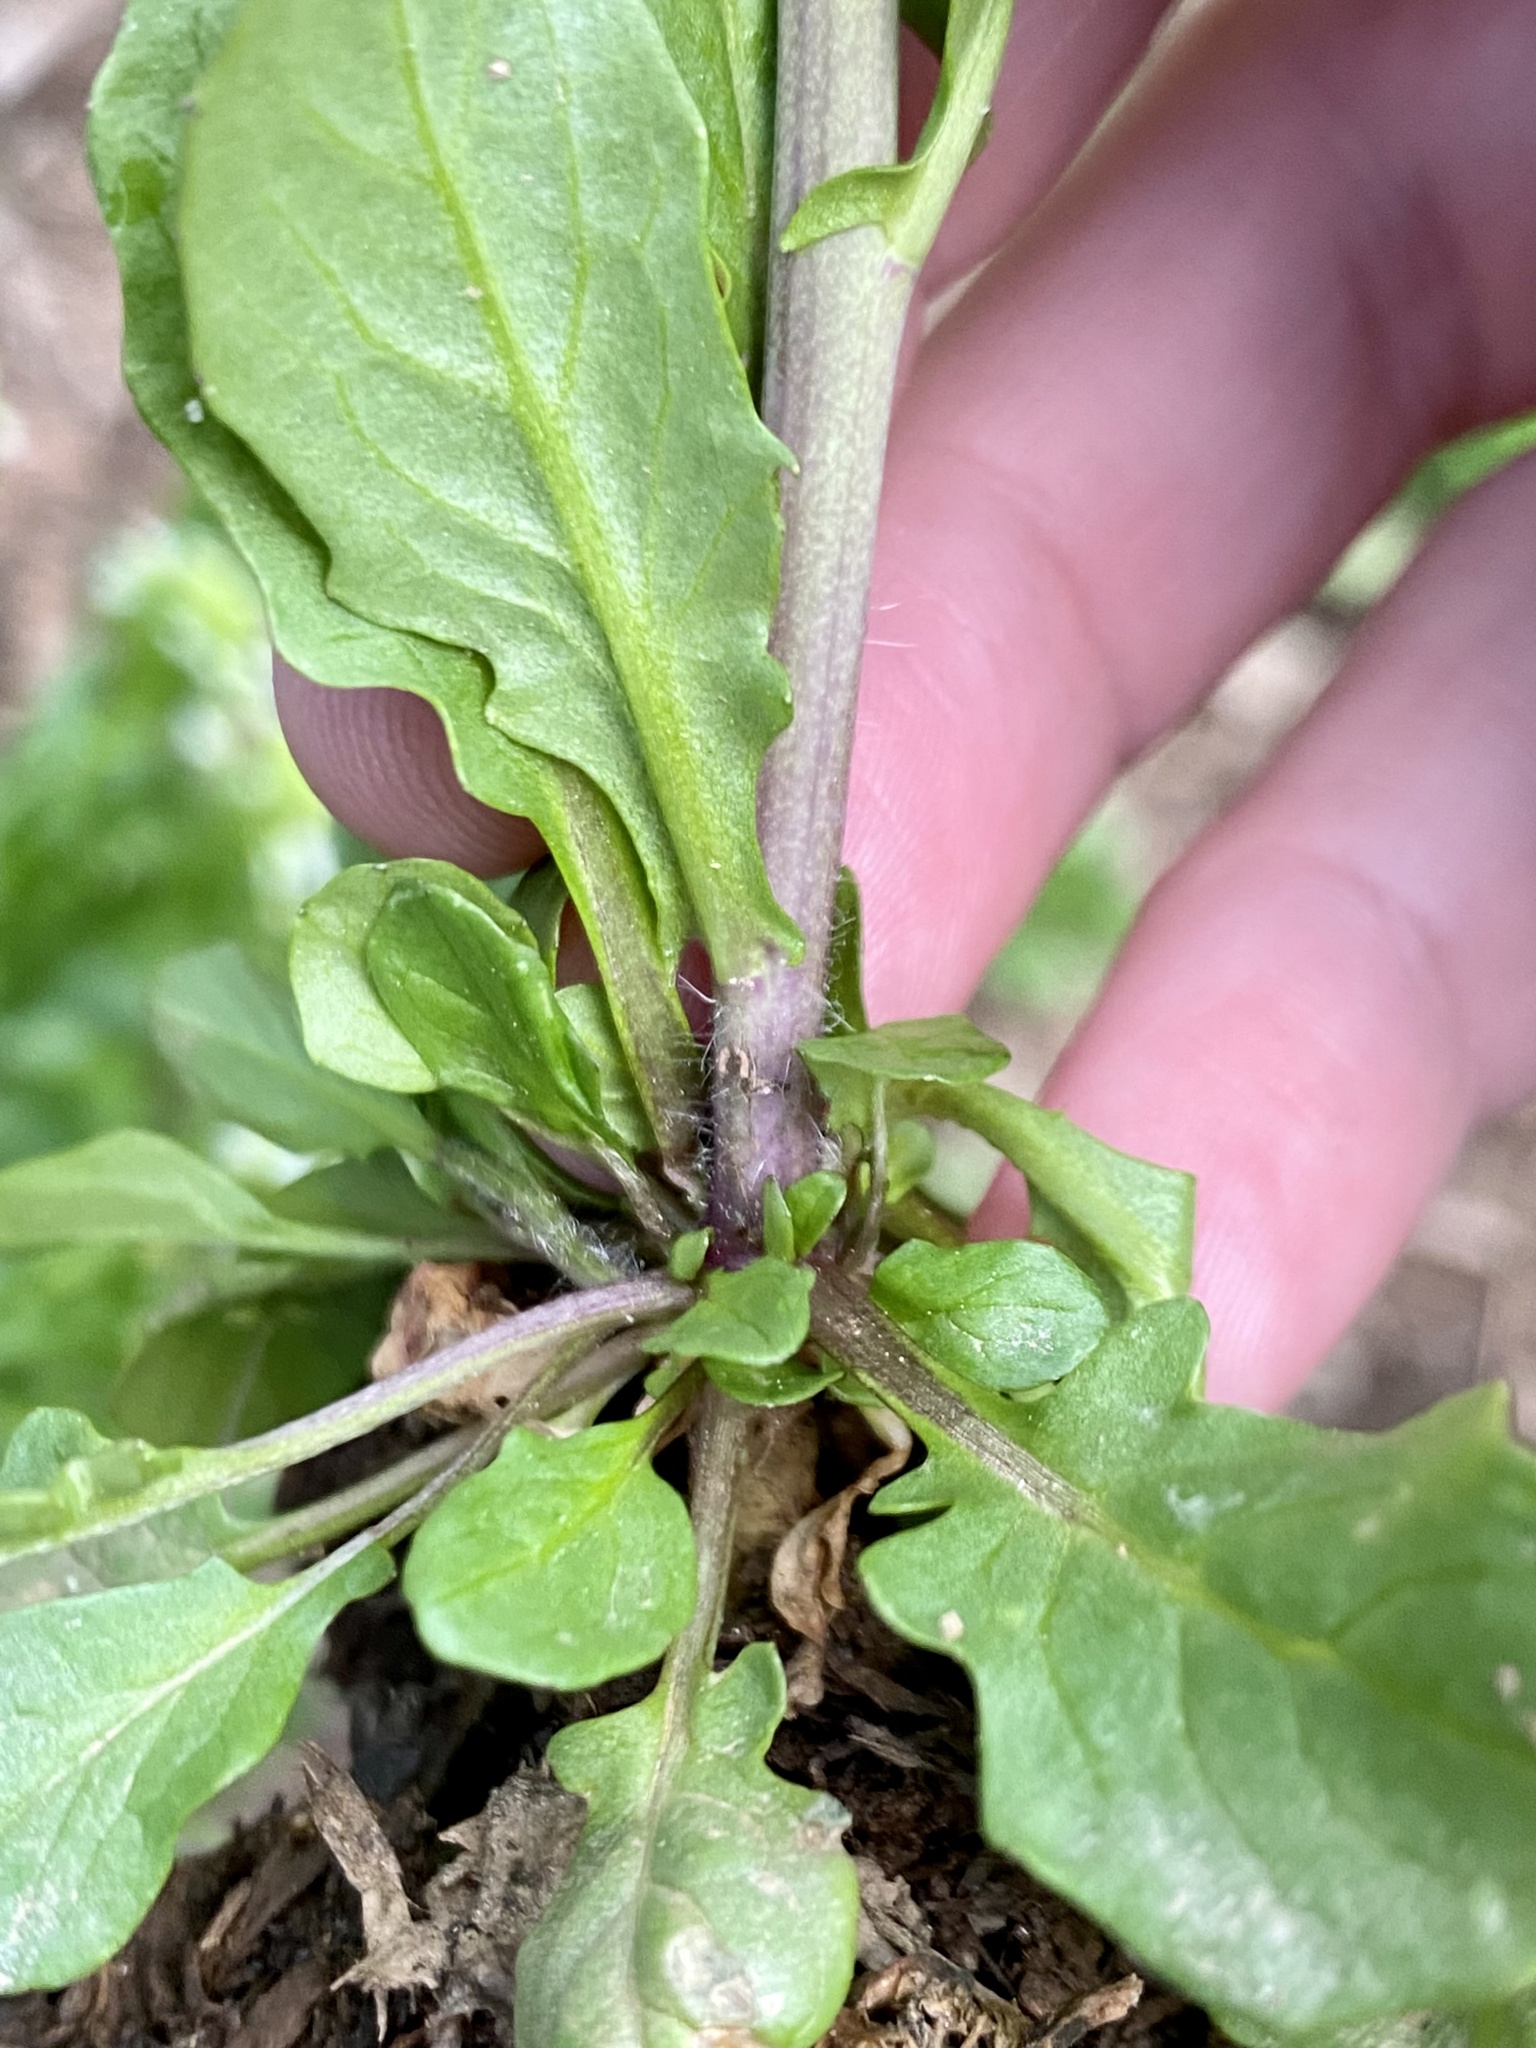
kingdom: Plantae
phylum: Tracheophyta
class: Magnoliopsida
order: Brassicales
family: Brassicaceae
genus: Mummenhoffia
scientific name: Mummenhoffia alliacea
